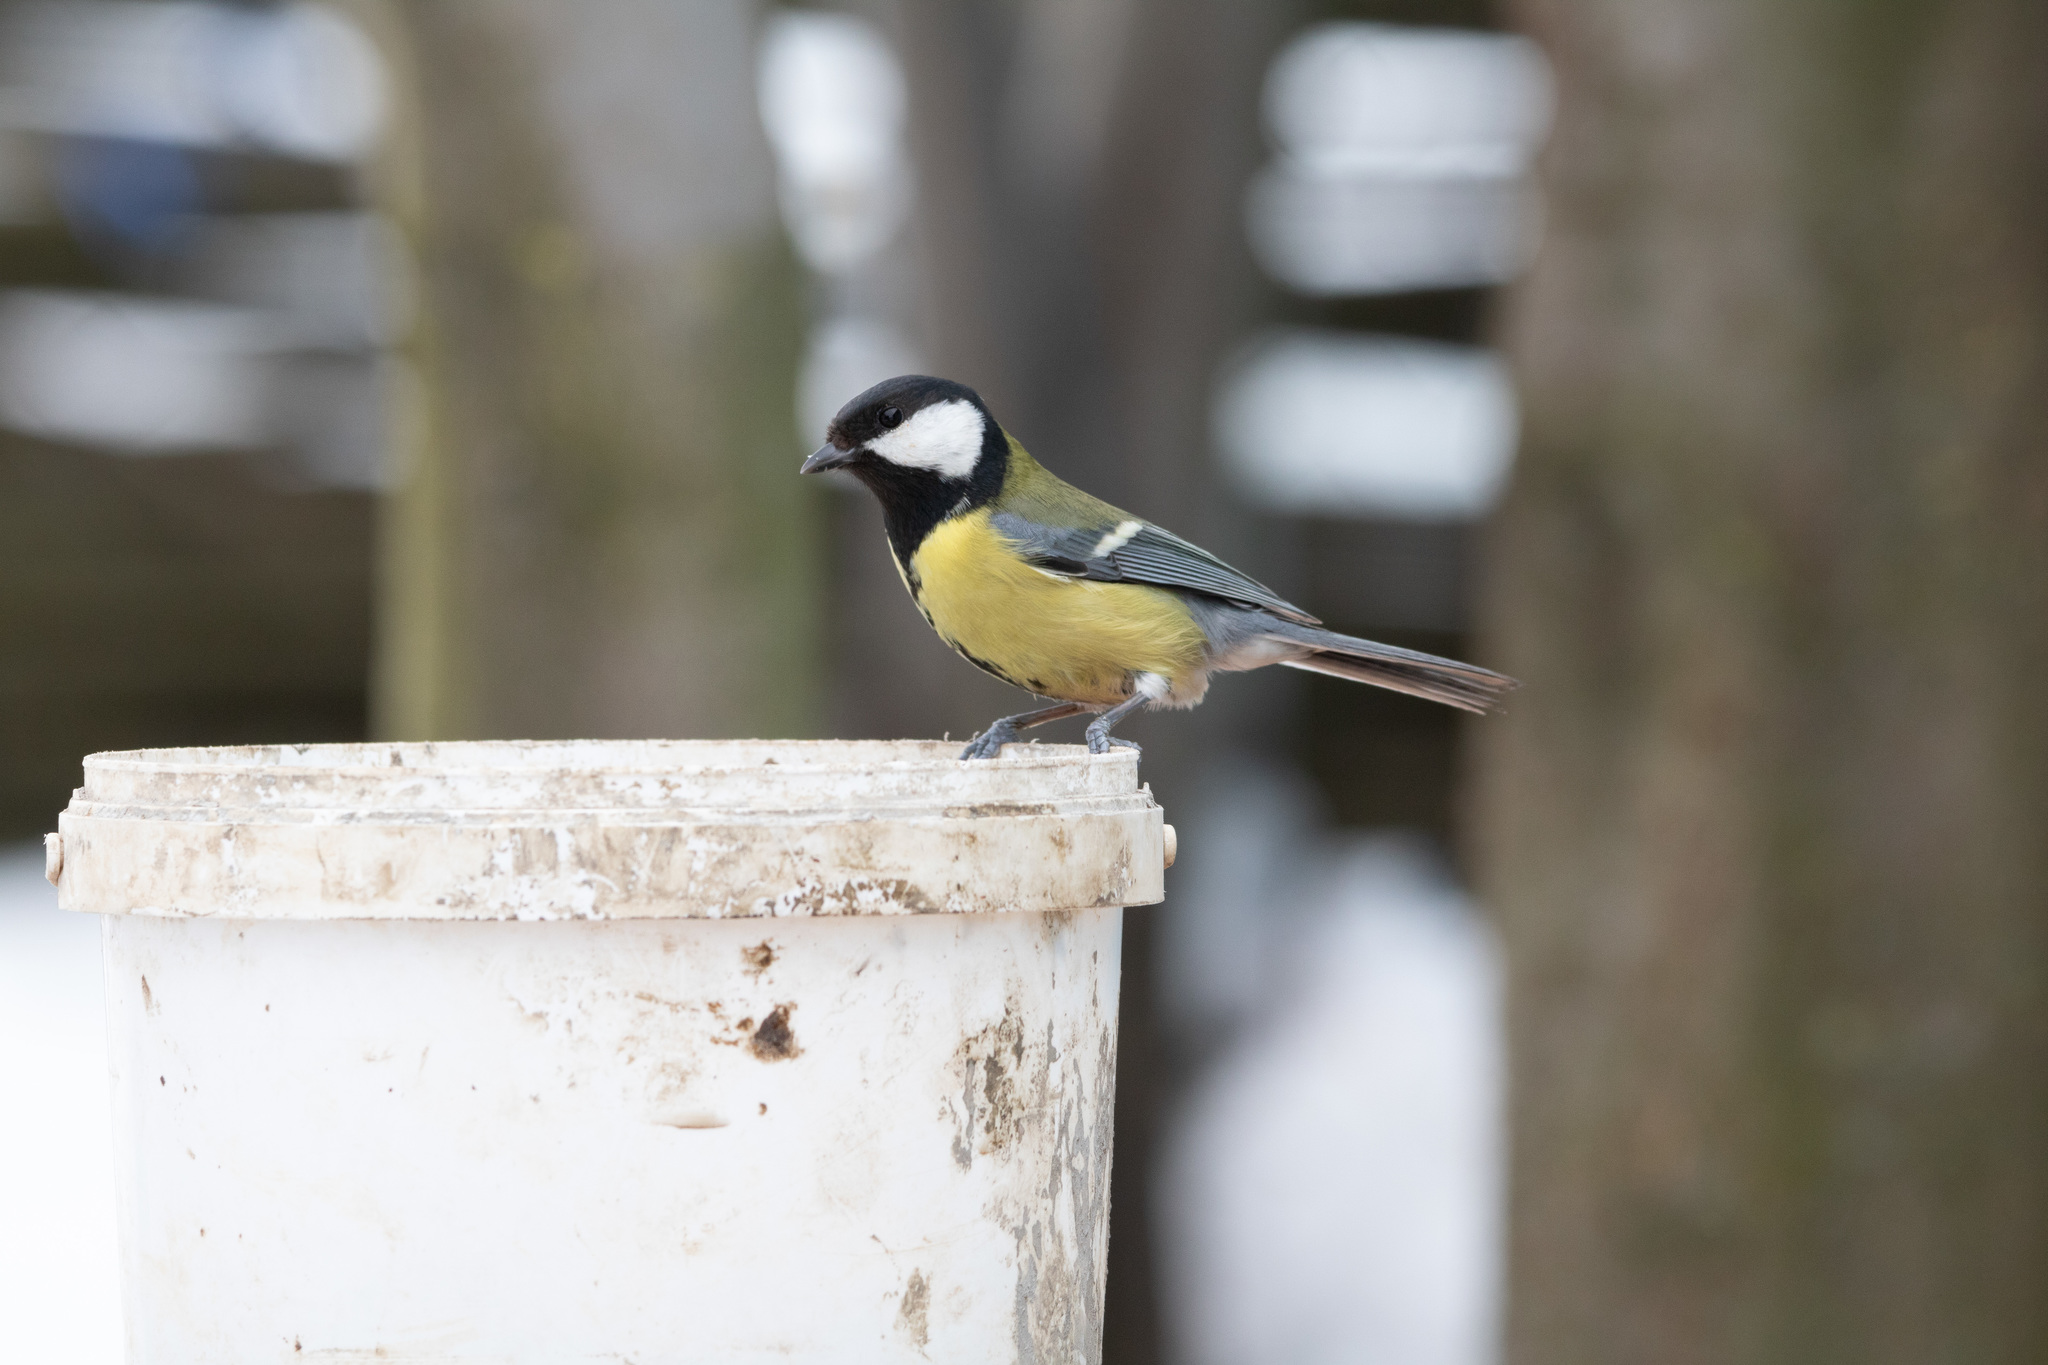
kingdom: Animalia
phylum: Chordata
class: Aves
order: Passeriformes
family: Paridae
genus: Parus
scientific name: Parus major
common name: Great tit
